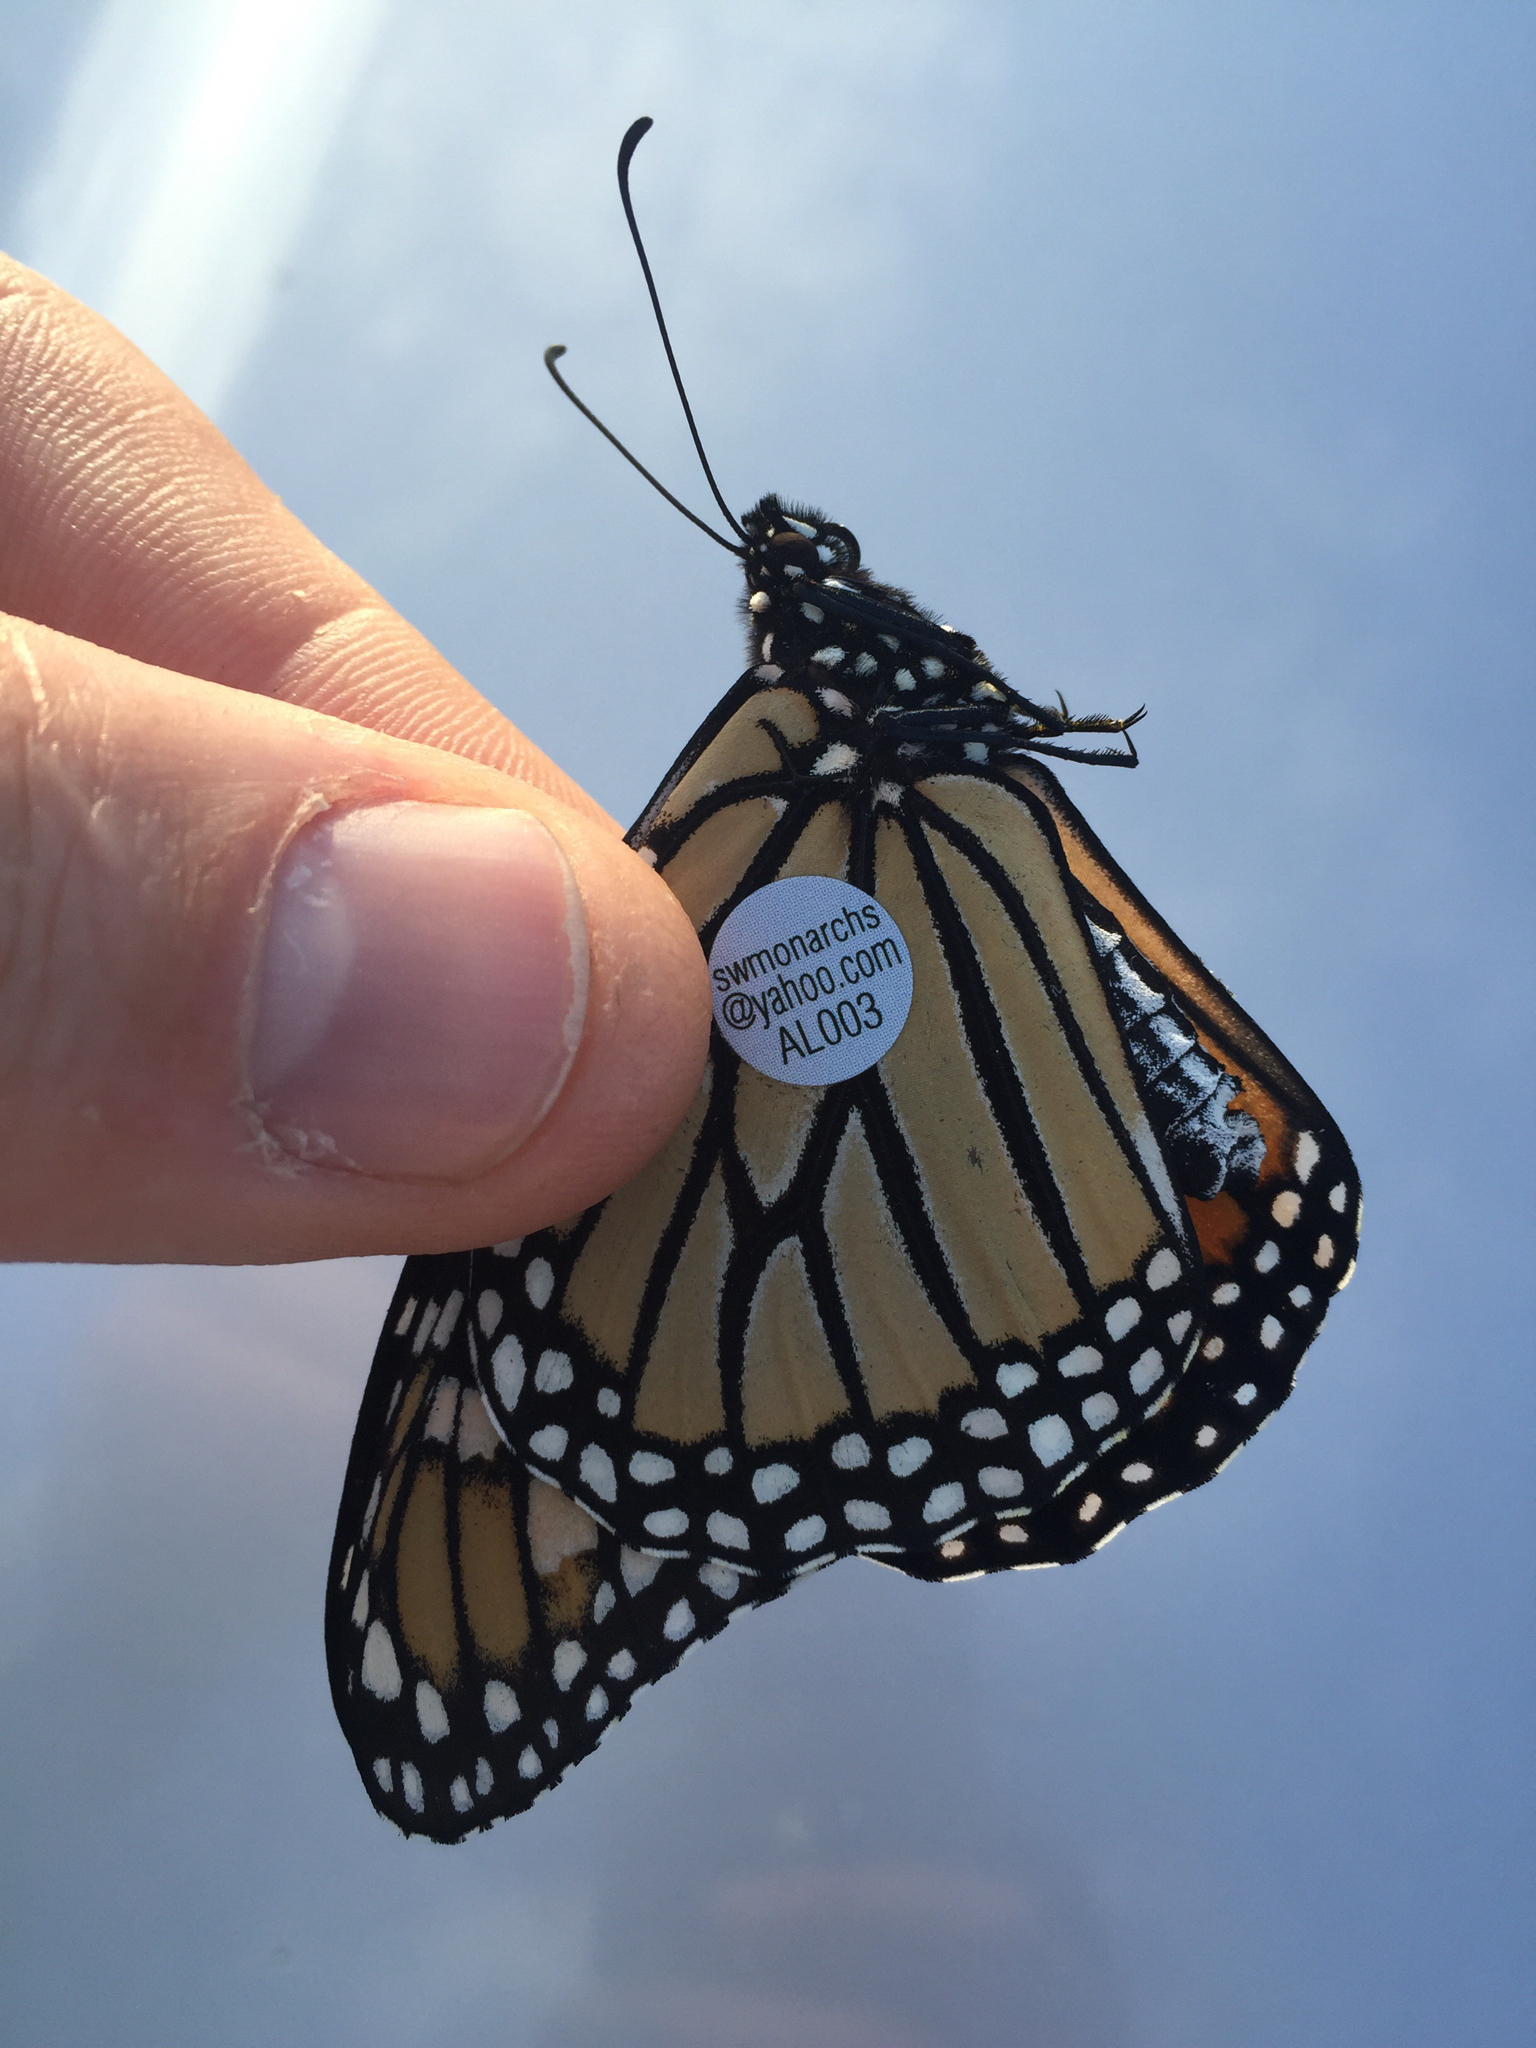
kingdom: Animalia
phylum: Arthropoda
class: Insecta
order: Lepidoptera
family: Nymphalidae
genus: Danaus
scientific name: Danaus plexippus
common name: Monarch
